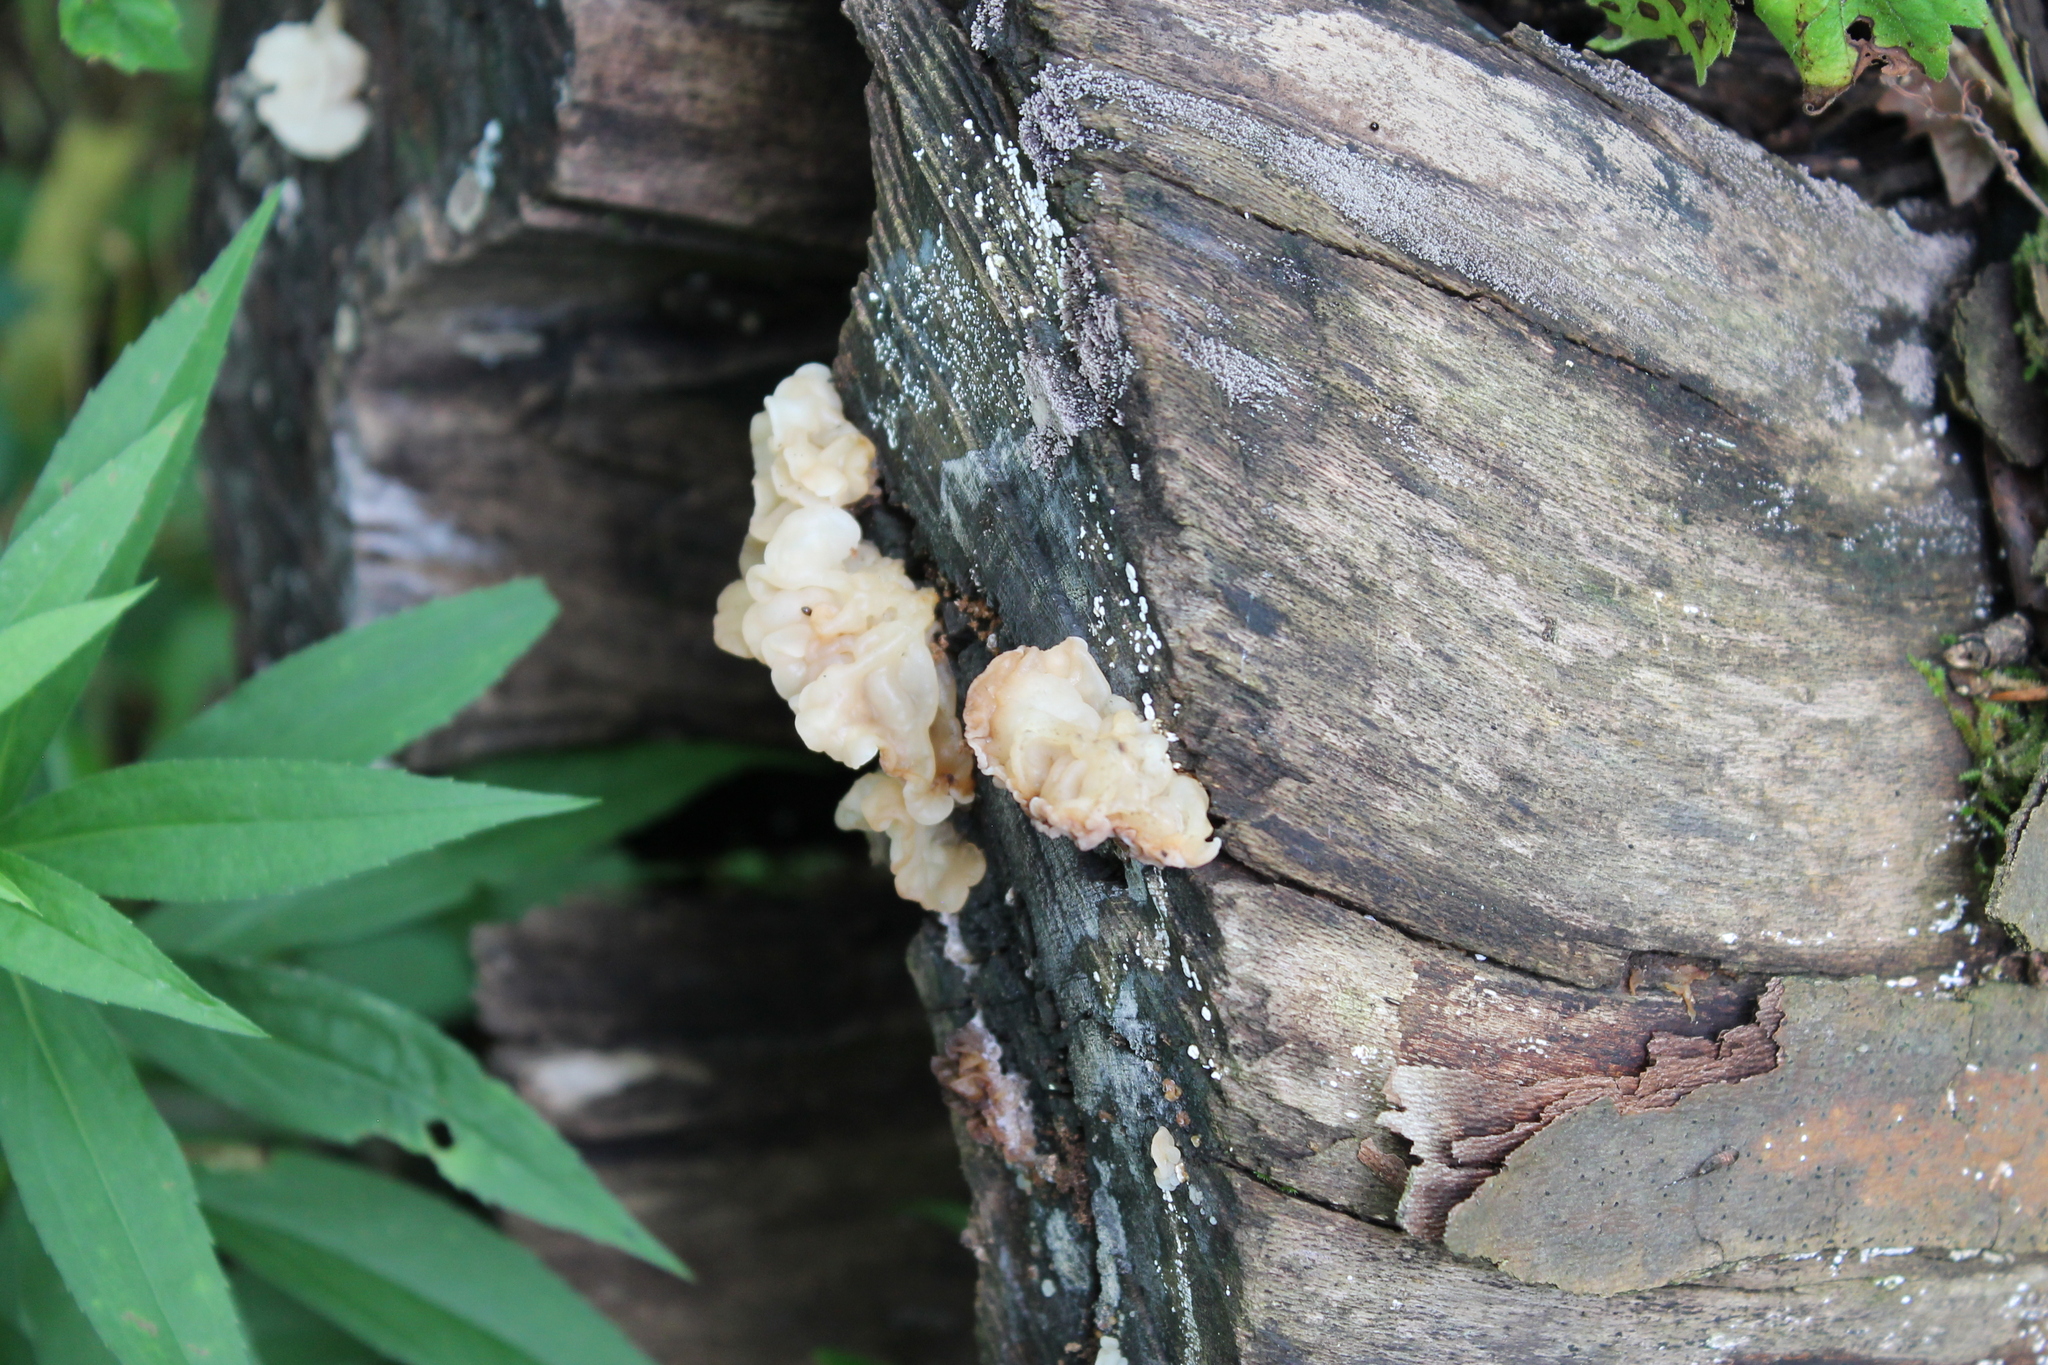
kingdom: Fungi
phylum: Basidiomycota
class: Agaricomycetes
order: Auriculariales
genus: Ductifera
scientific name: Ductifera pululahuana
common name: White jelly fungus
